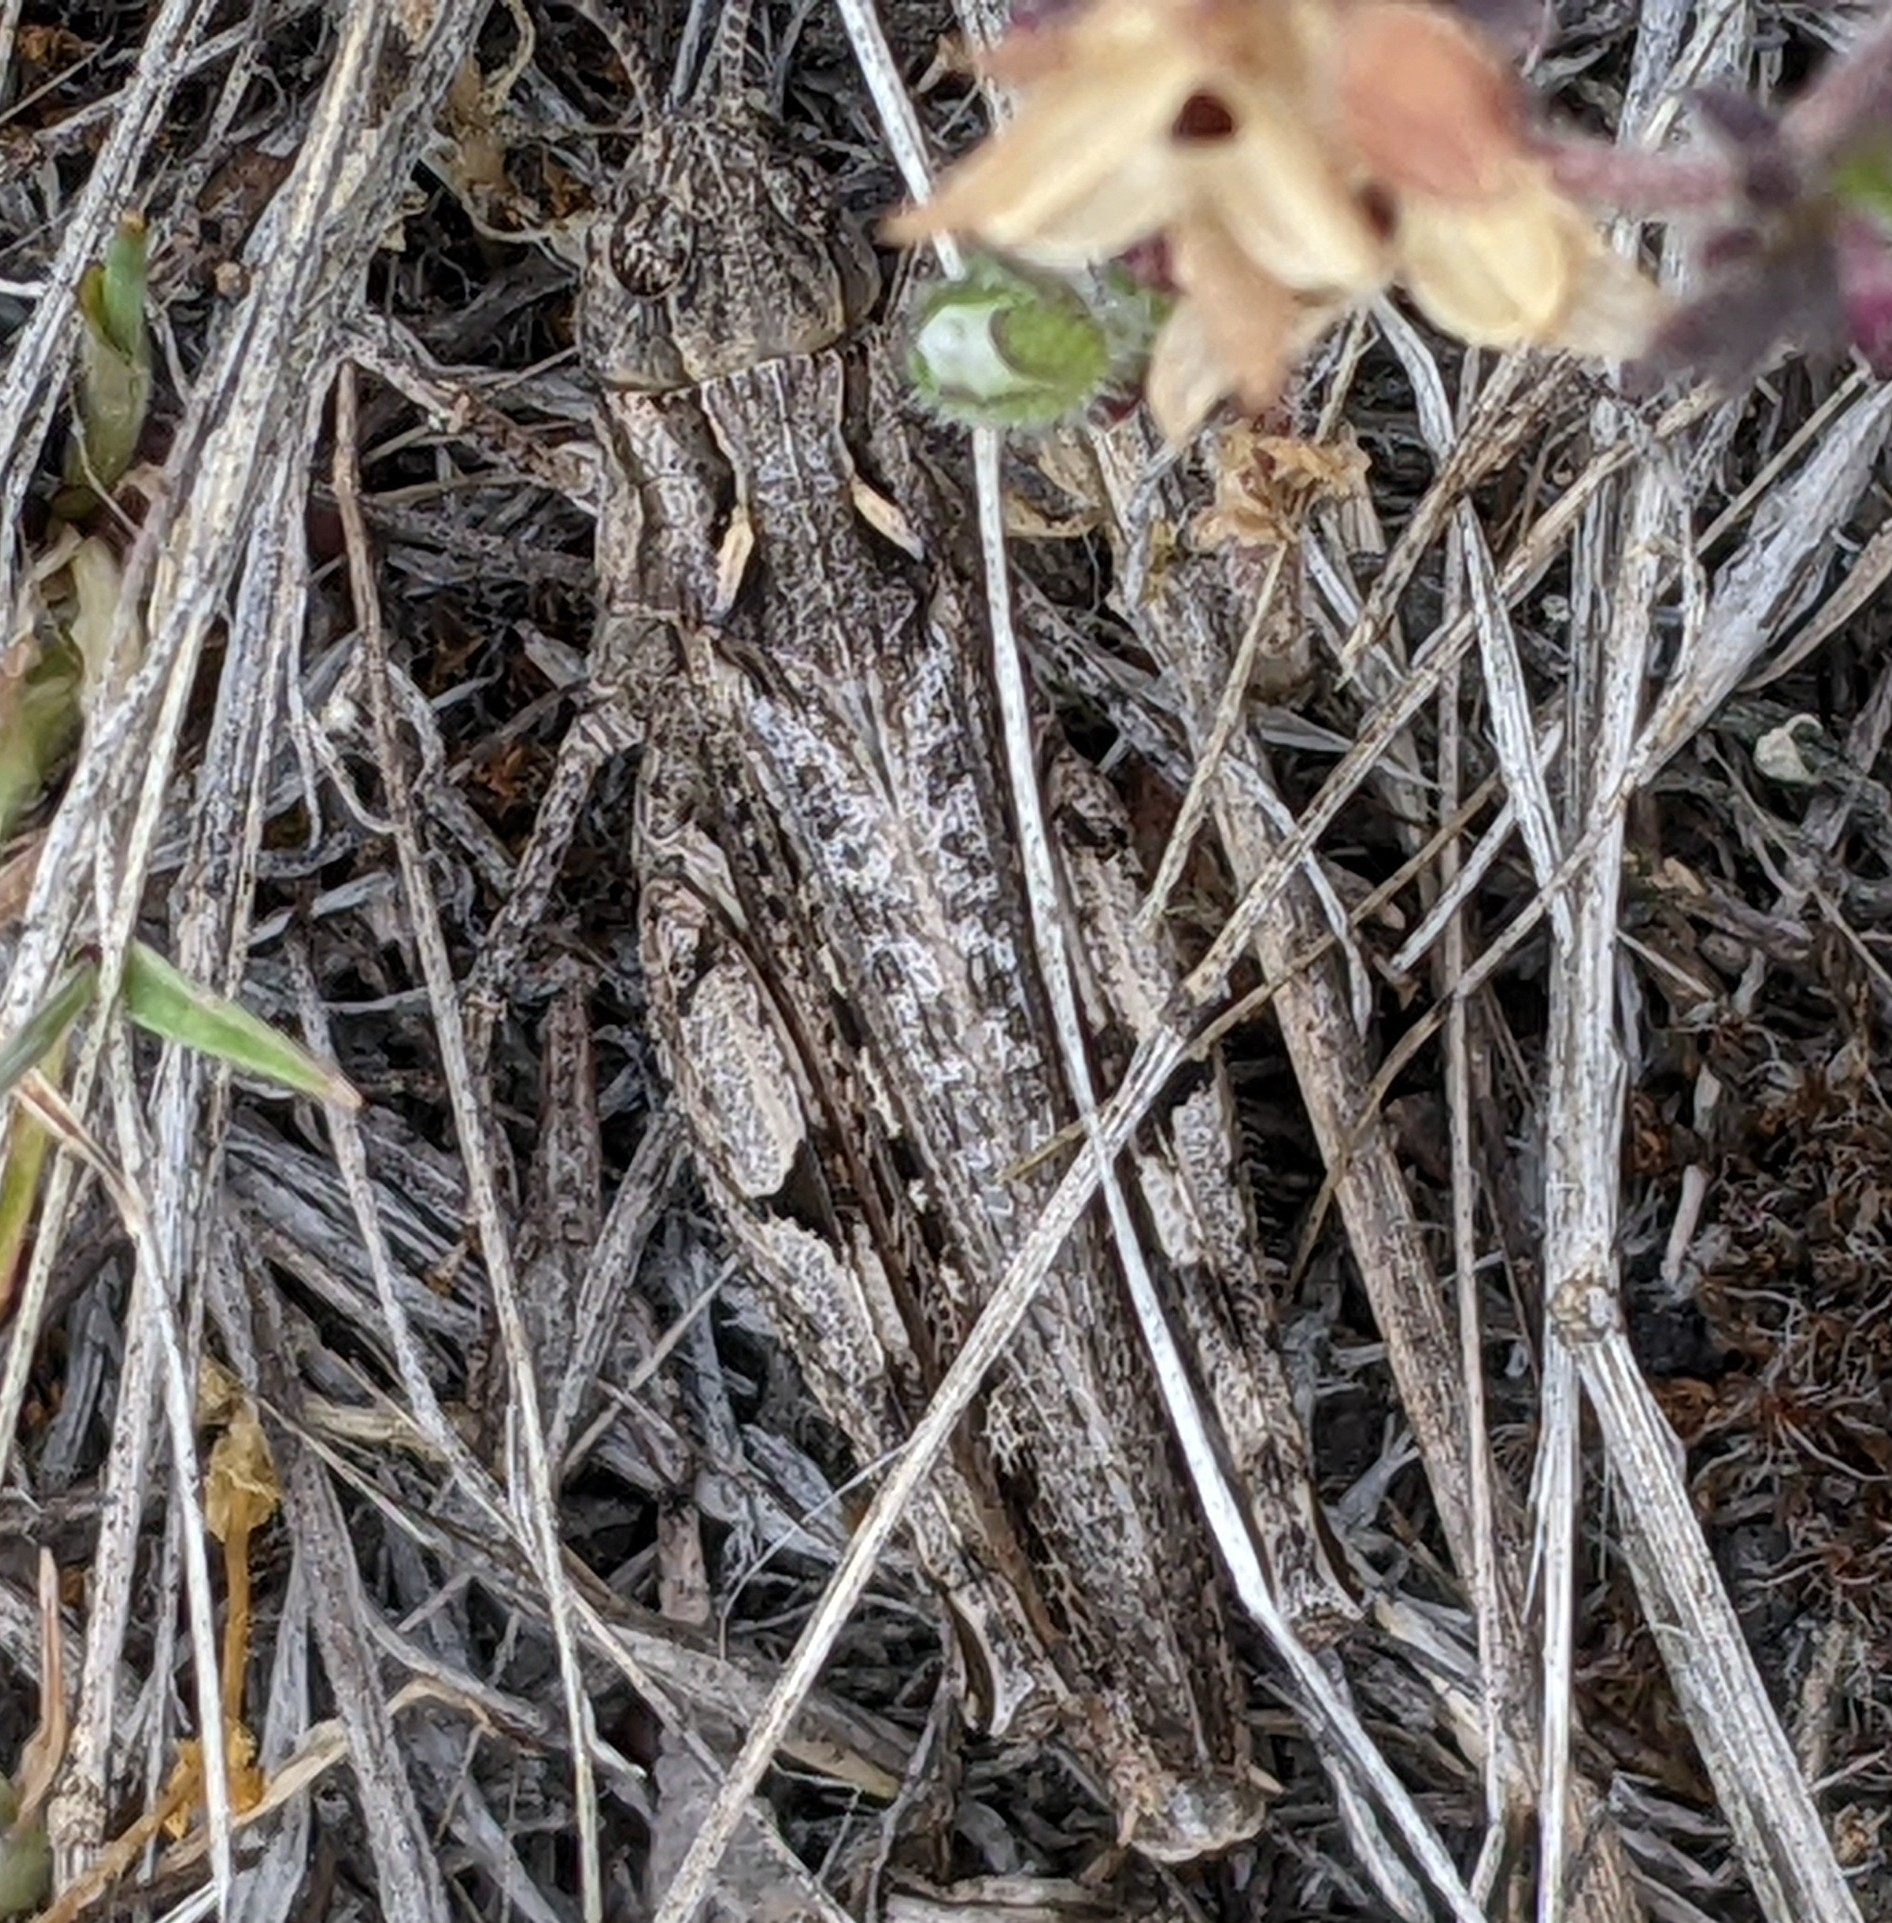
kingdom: Animalia
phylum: Arthropoda
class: Insecta
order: Orthoptera
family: Acrididae
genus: Psoloessa
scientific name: Psoloessa delicatula
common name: Brown-spotted range grasshopper
